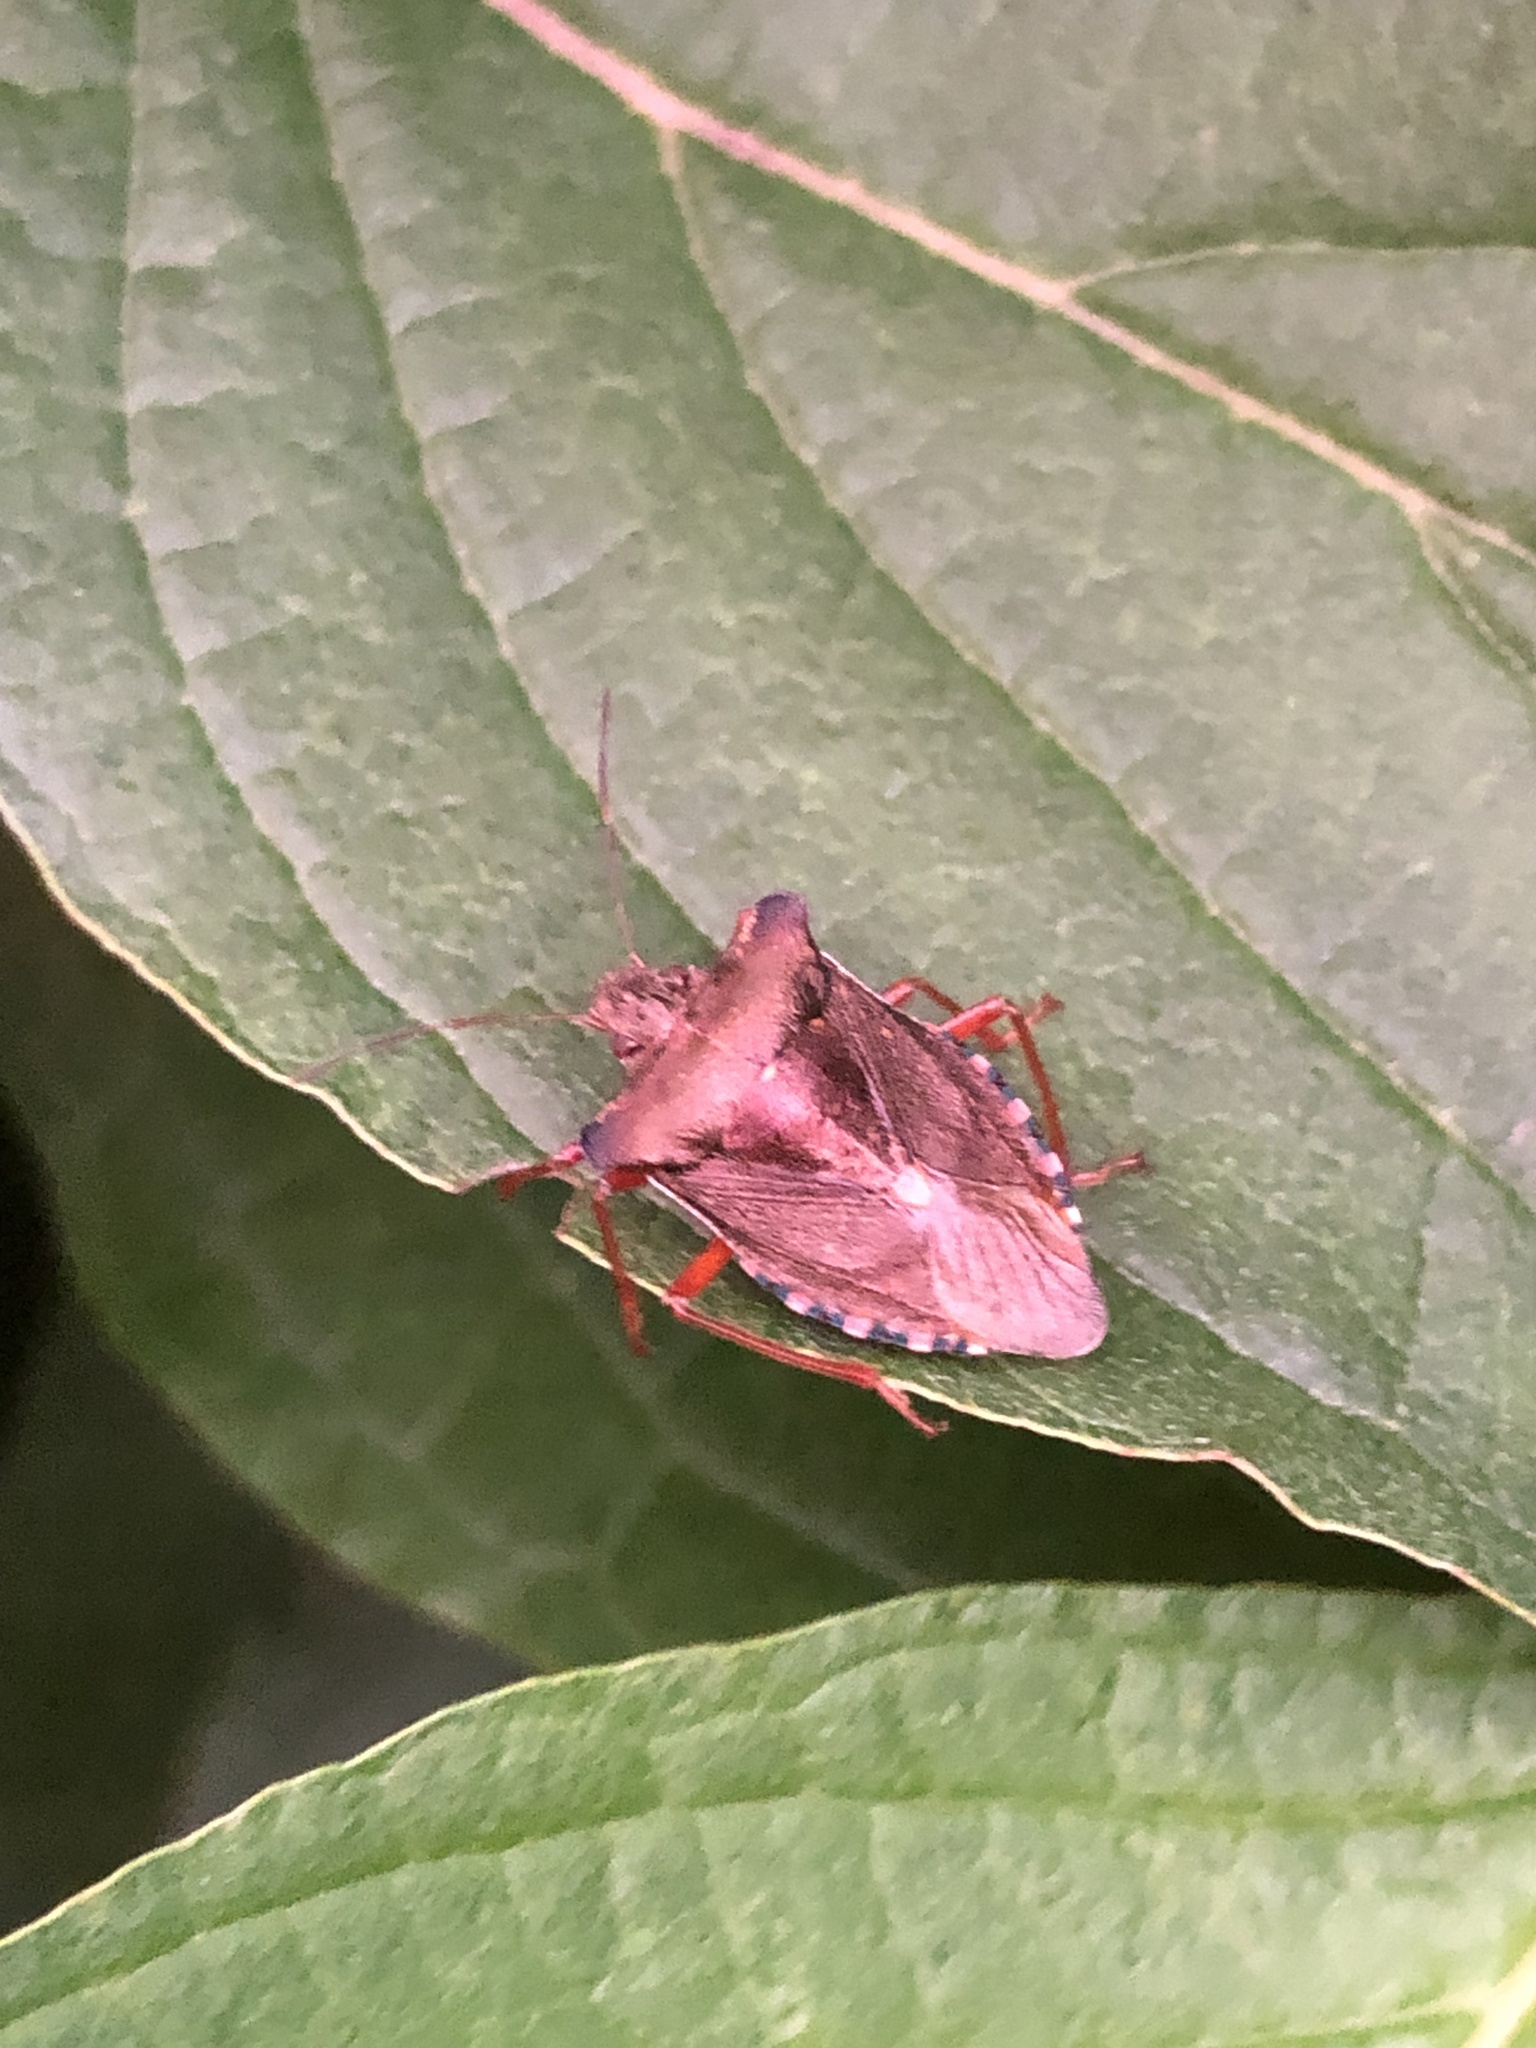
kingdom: Animalia
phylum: Arthropoda
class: Insecta
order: Hemiptera
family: Pentatomidae
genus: Pentatoma
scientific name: Pentatoma rufipes
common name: Forest bug
